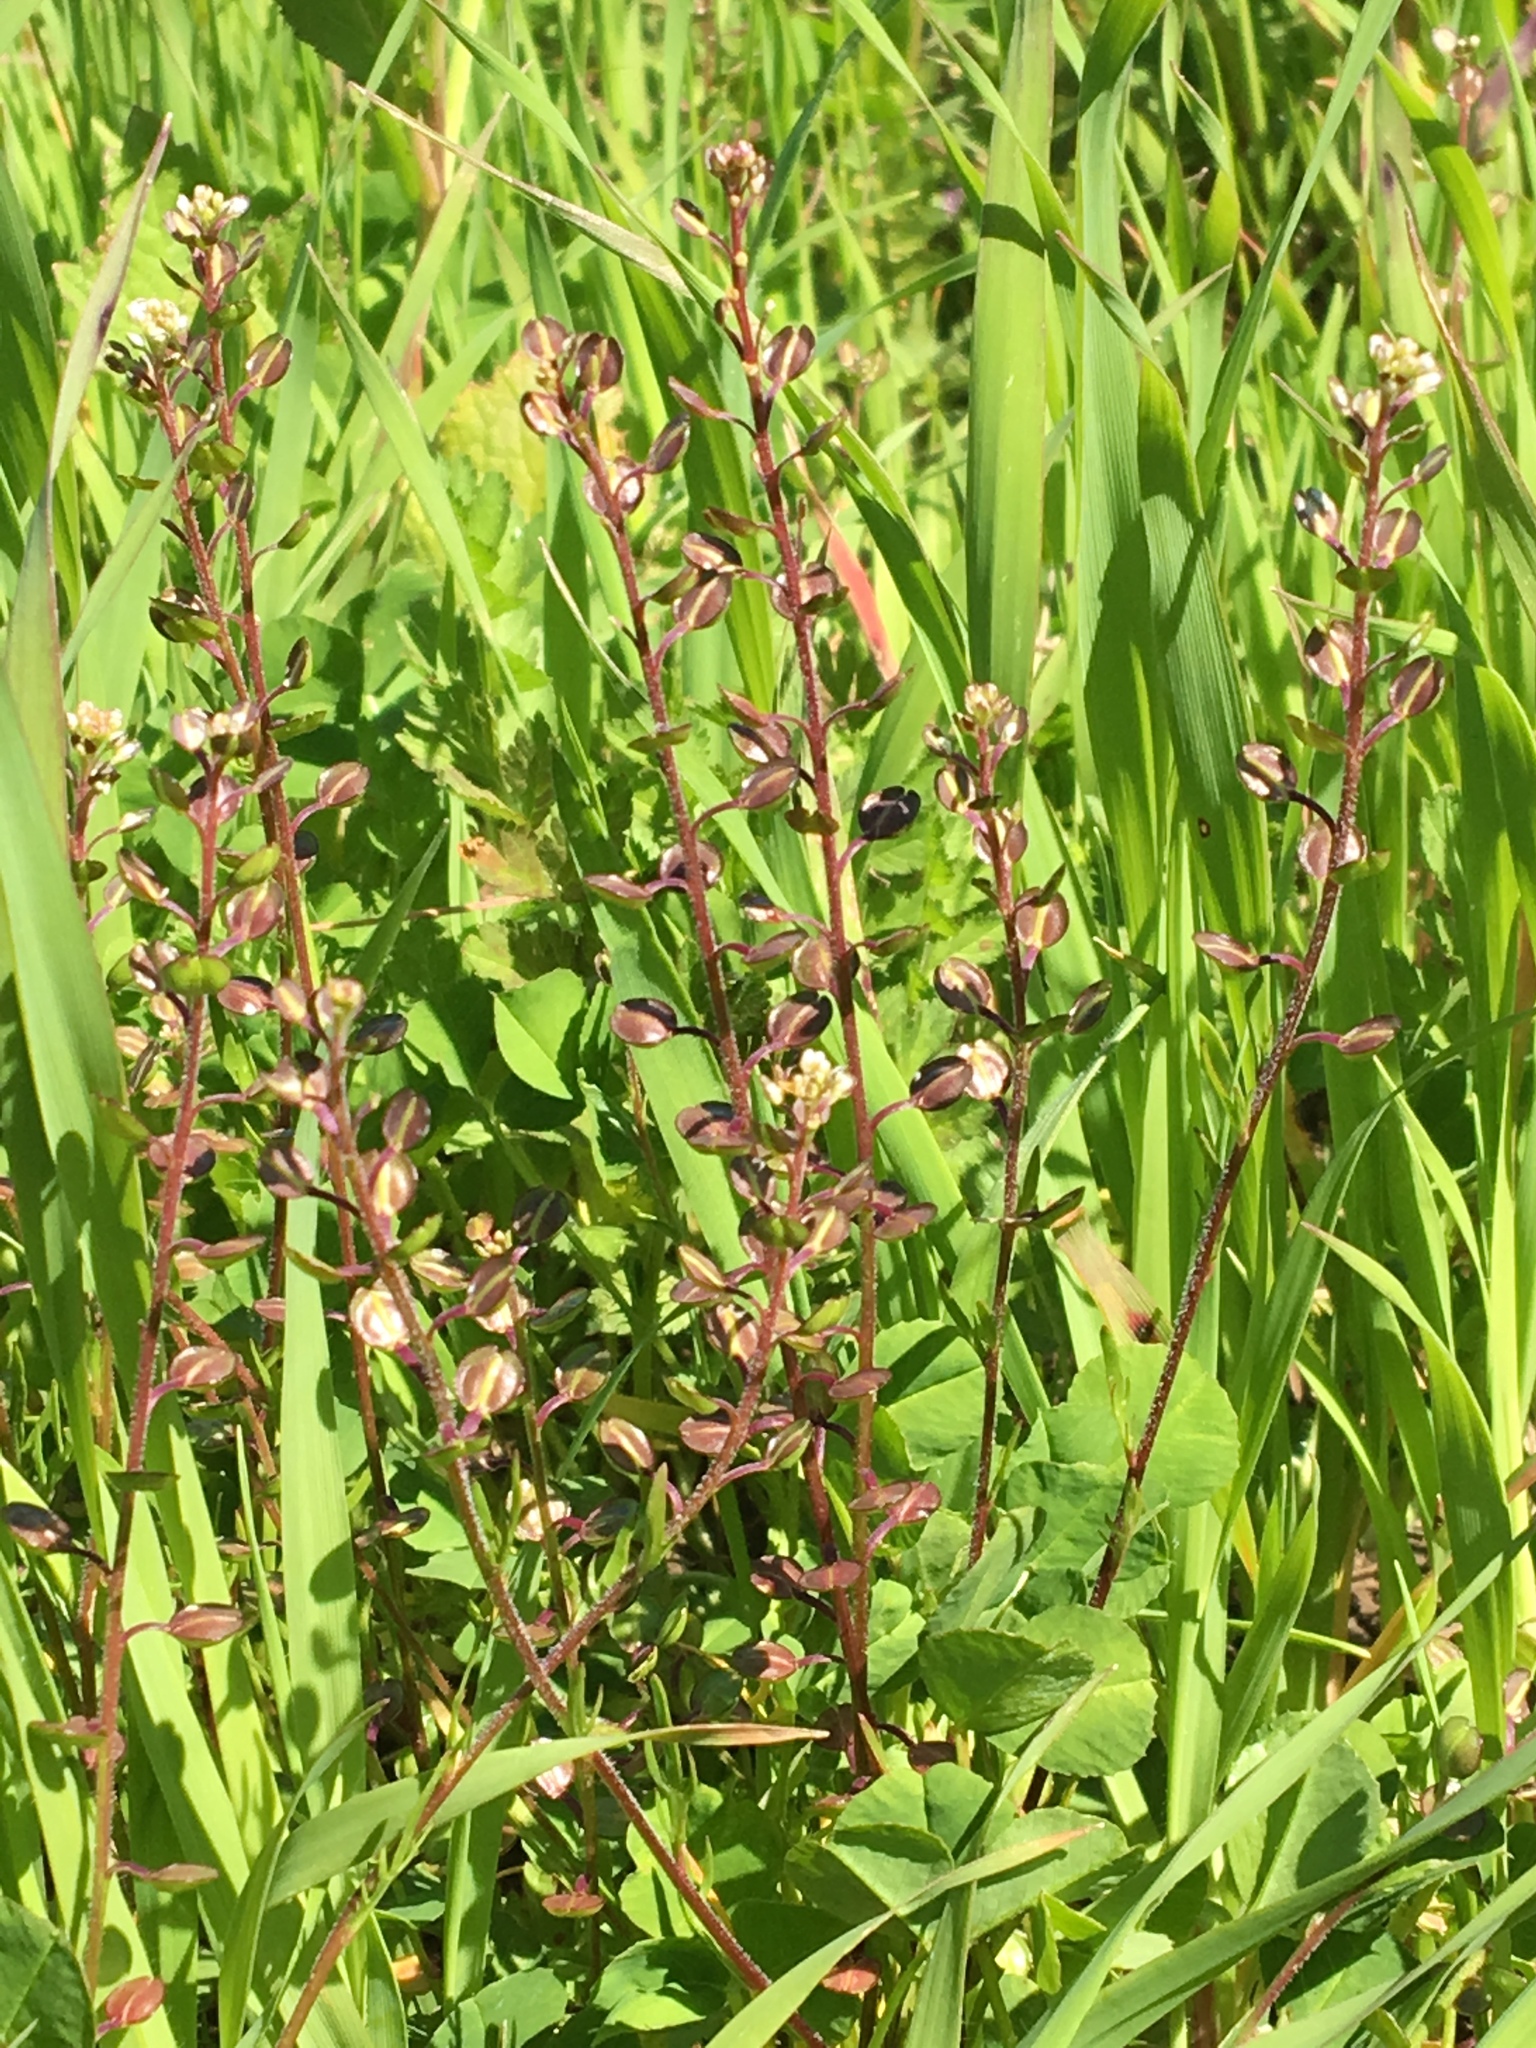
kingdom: Plantae
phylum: Tracheophyta
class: Magnoliopsida
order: Brassicales
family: Brassicaceae
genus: Lepidium
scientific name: Lepidium nitidum
